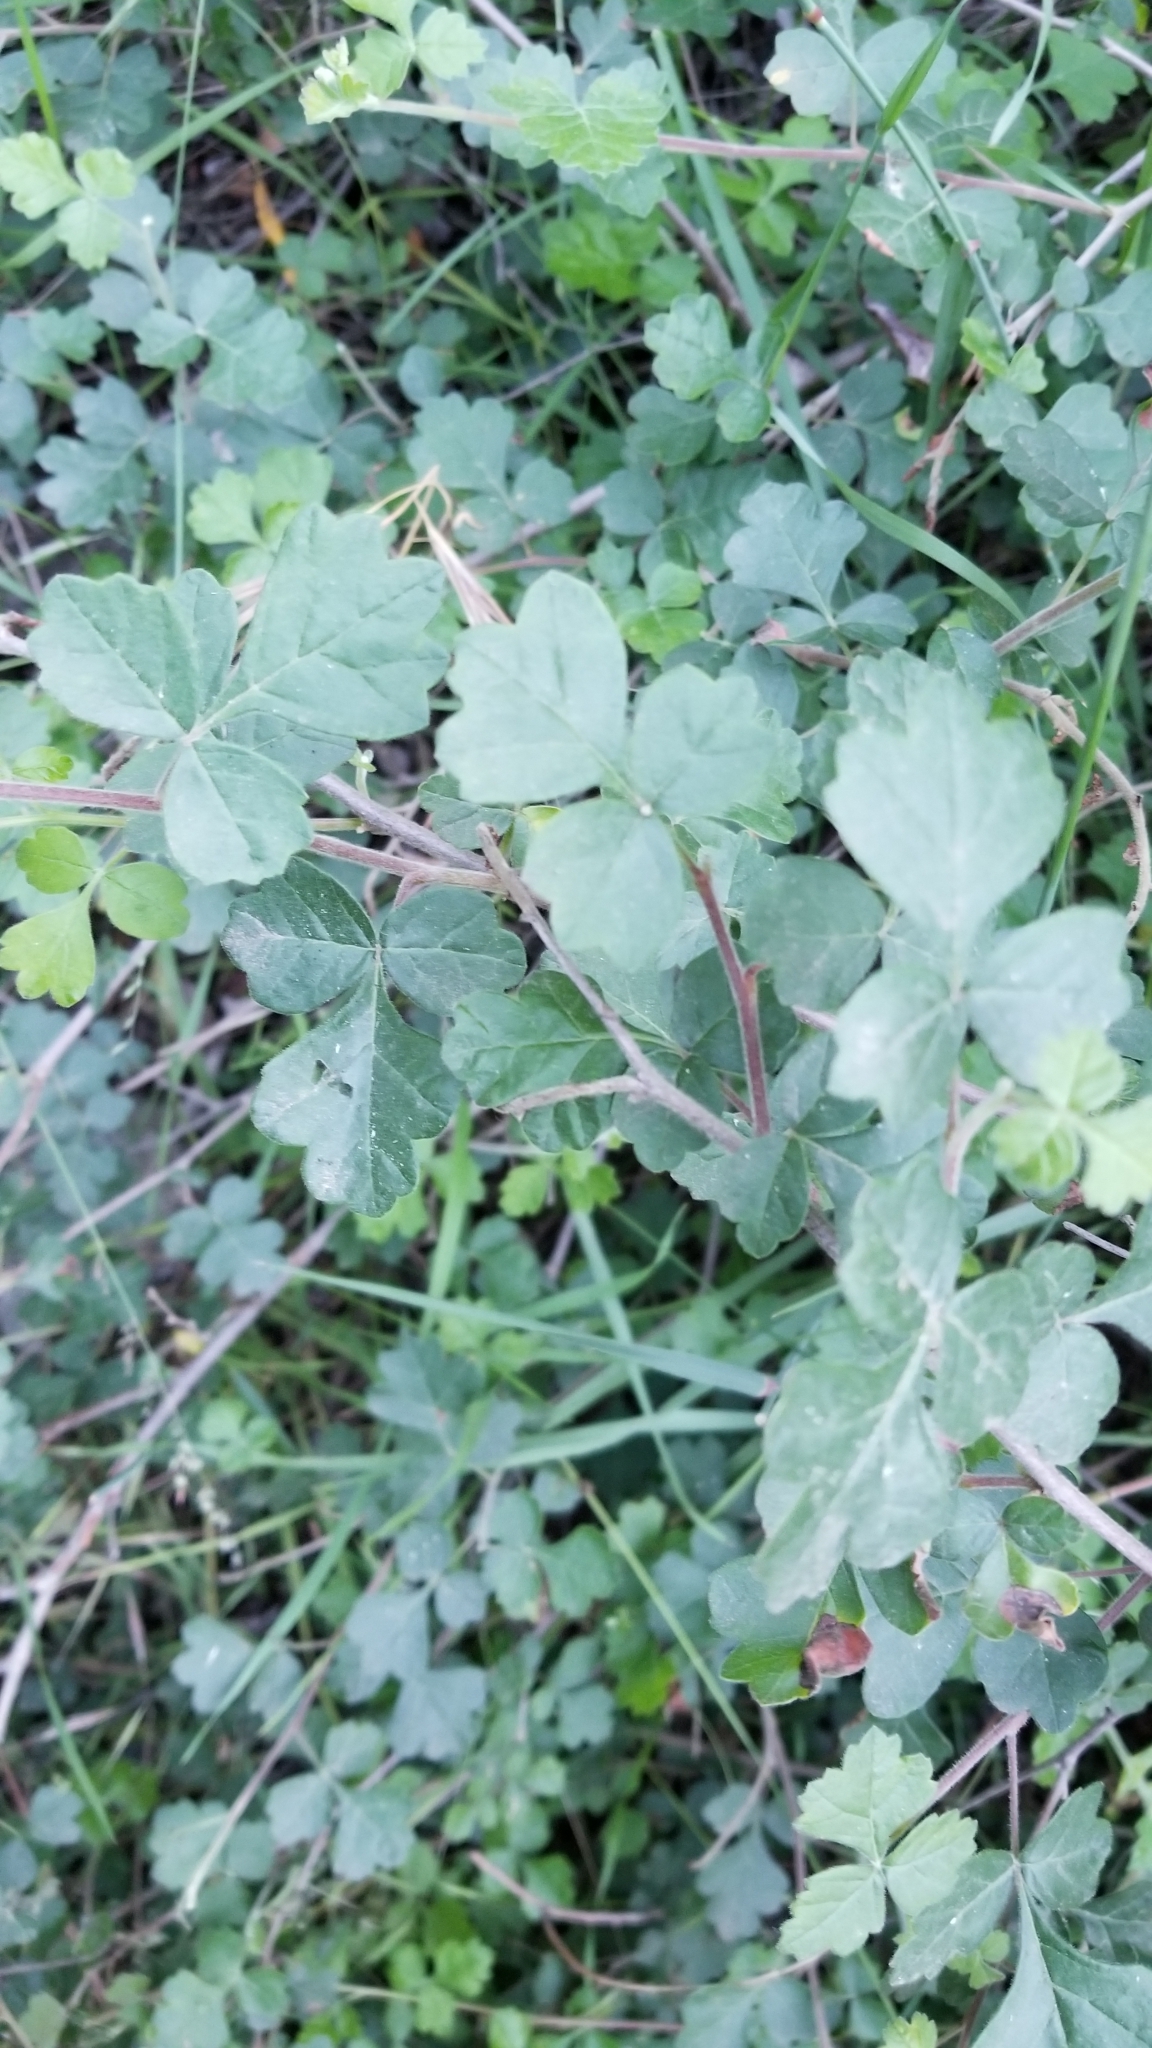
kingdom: Plantae
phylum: Tracheophyta
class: Magnoliopsida
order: Sapindales
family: Anacardiaceae
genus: Rhus
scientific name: Rhus aromatica
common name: Aromatic sumac
